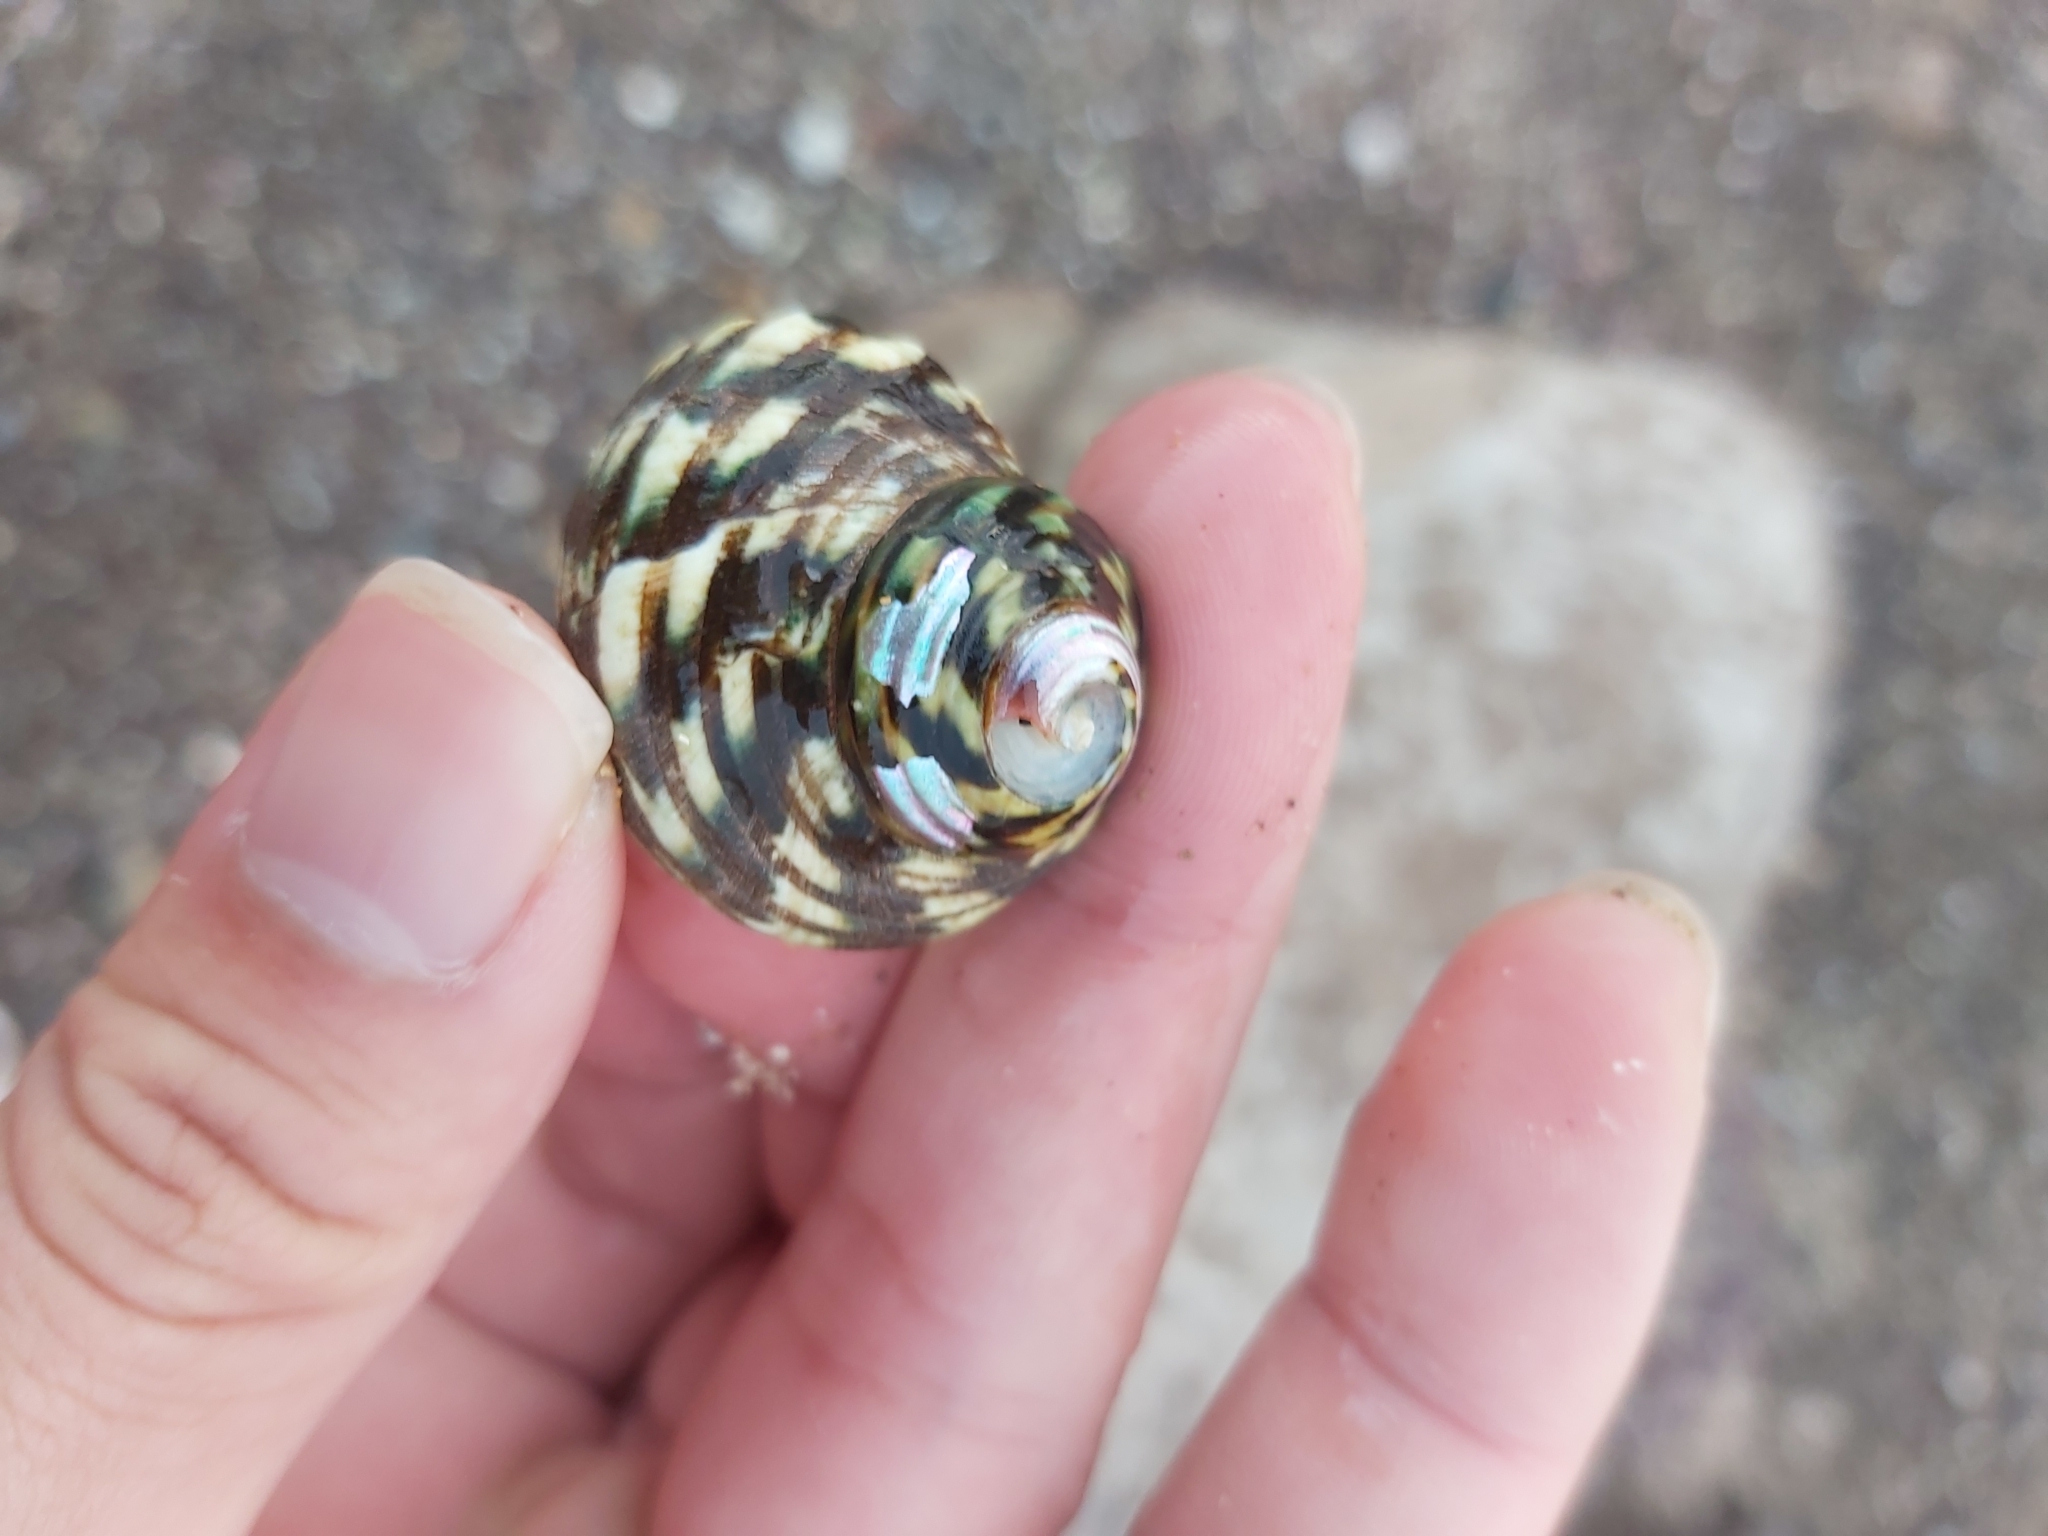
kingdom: Animalia
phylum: Mollusca
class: Gastropoda
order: Trochida
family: Turbinidae
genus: Lunella
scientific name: Lunella undulata
